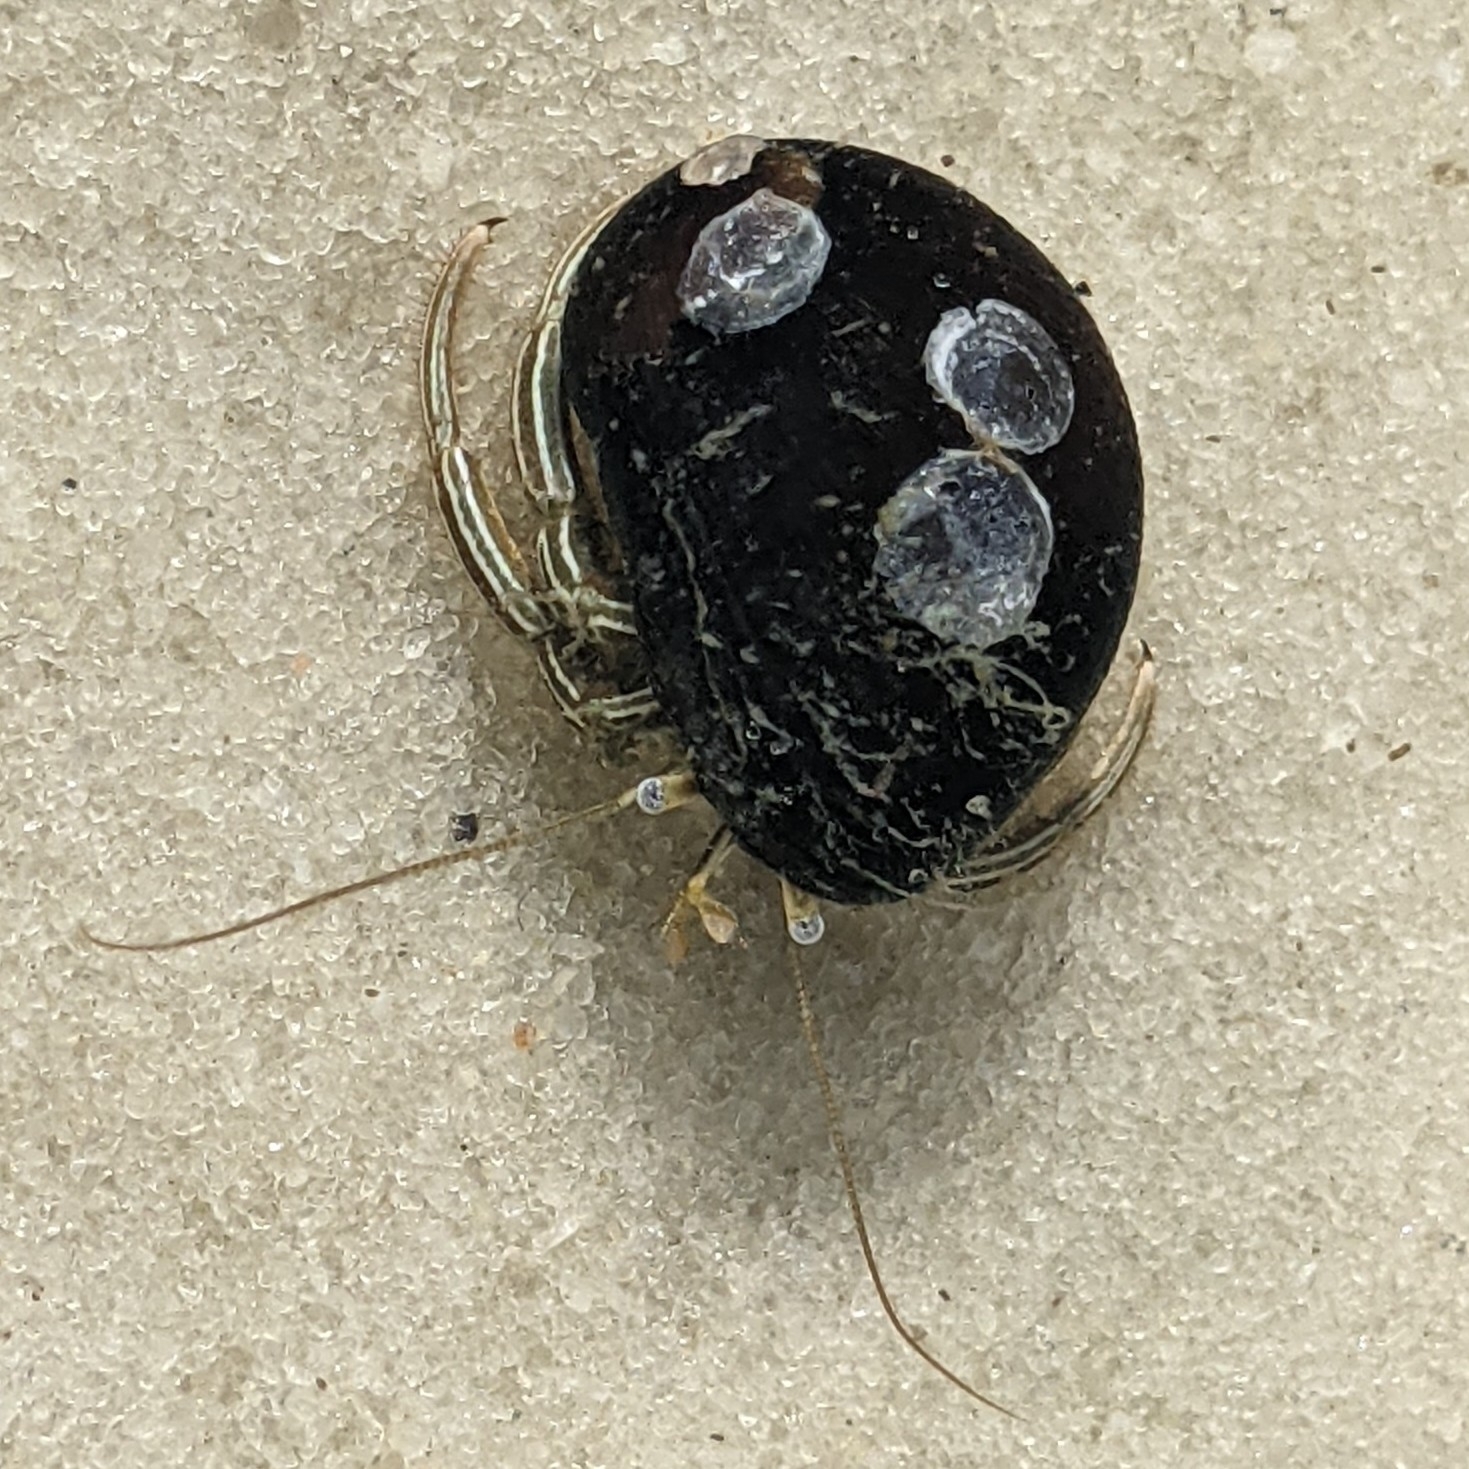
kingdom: Animalia
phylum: Arthropoda
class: Malacostraca
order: Decapoda
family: Diogenidae
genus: Clibanarius
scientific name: Clibanarius vittatus
